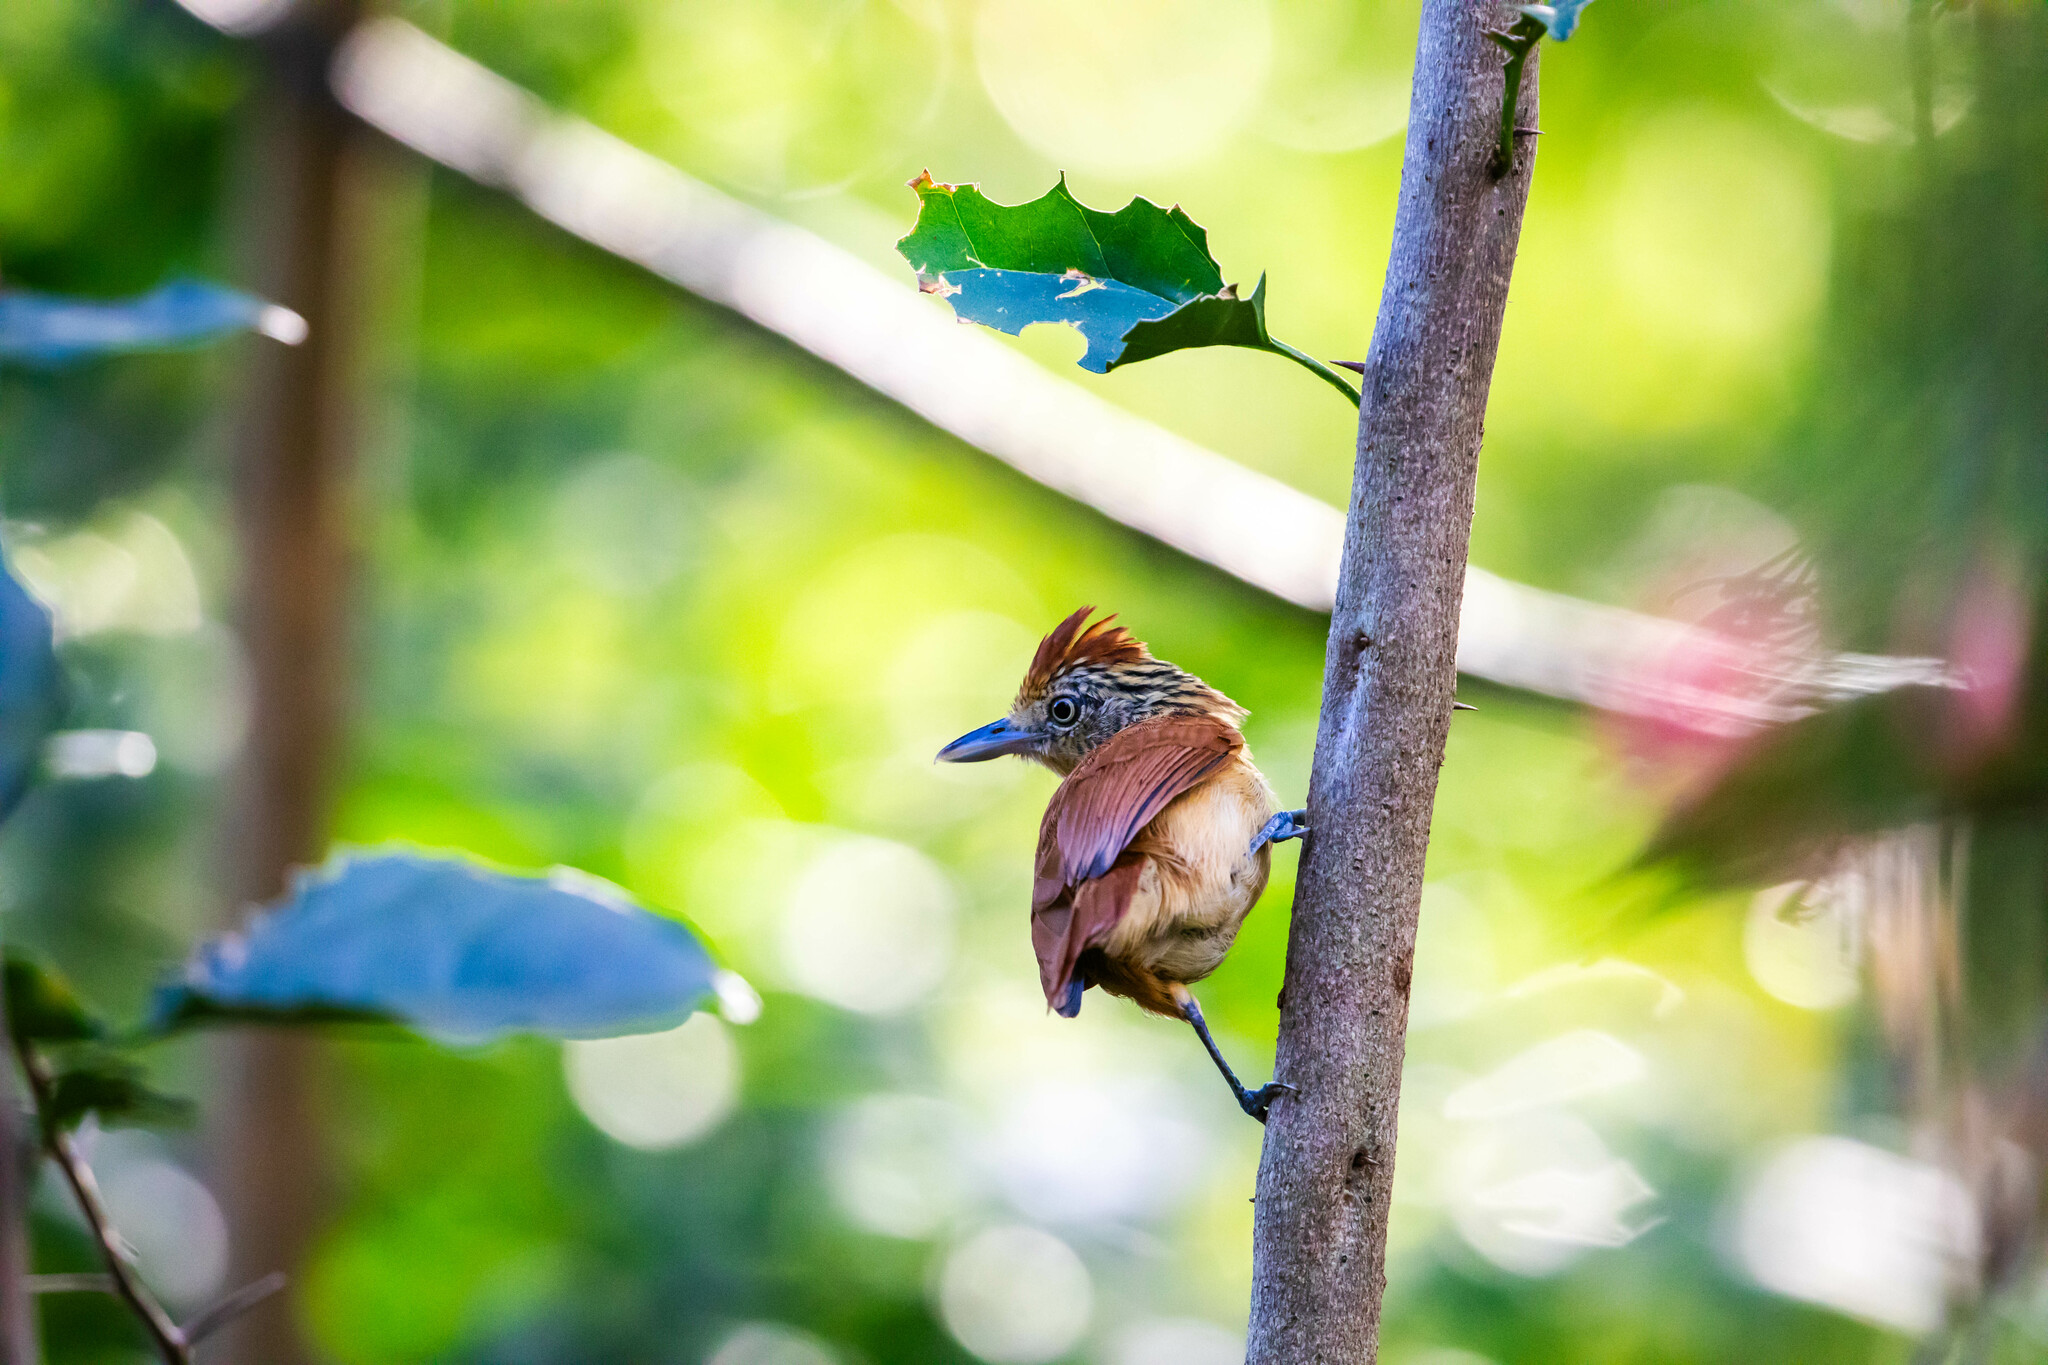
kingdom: Animalia
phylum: Chordata
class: Aves
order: Passeriformes
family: Thamnophilidae
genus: Thamnophilus
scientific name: Thamnophilus doliatus
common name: Barred antshrike
